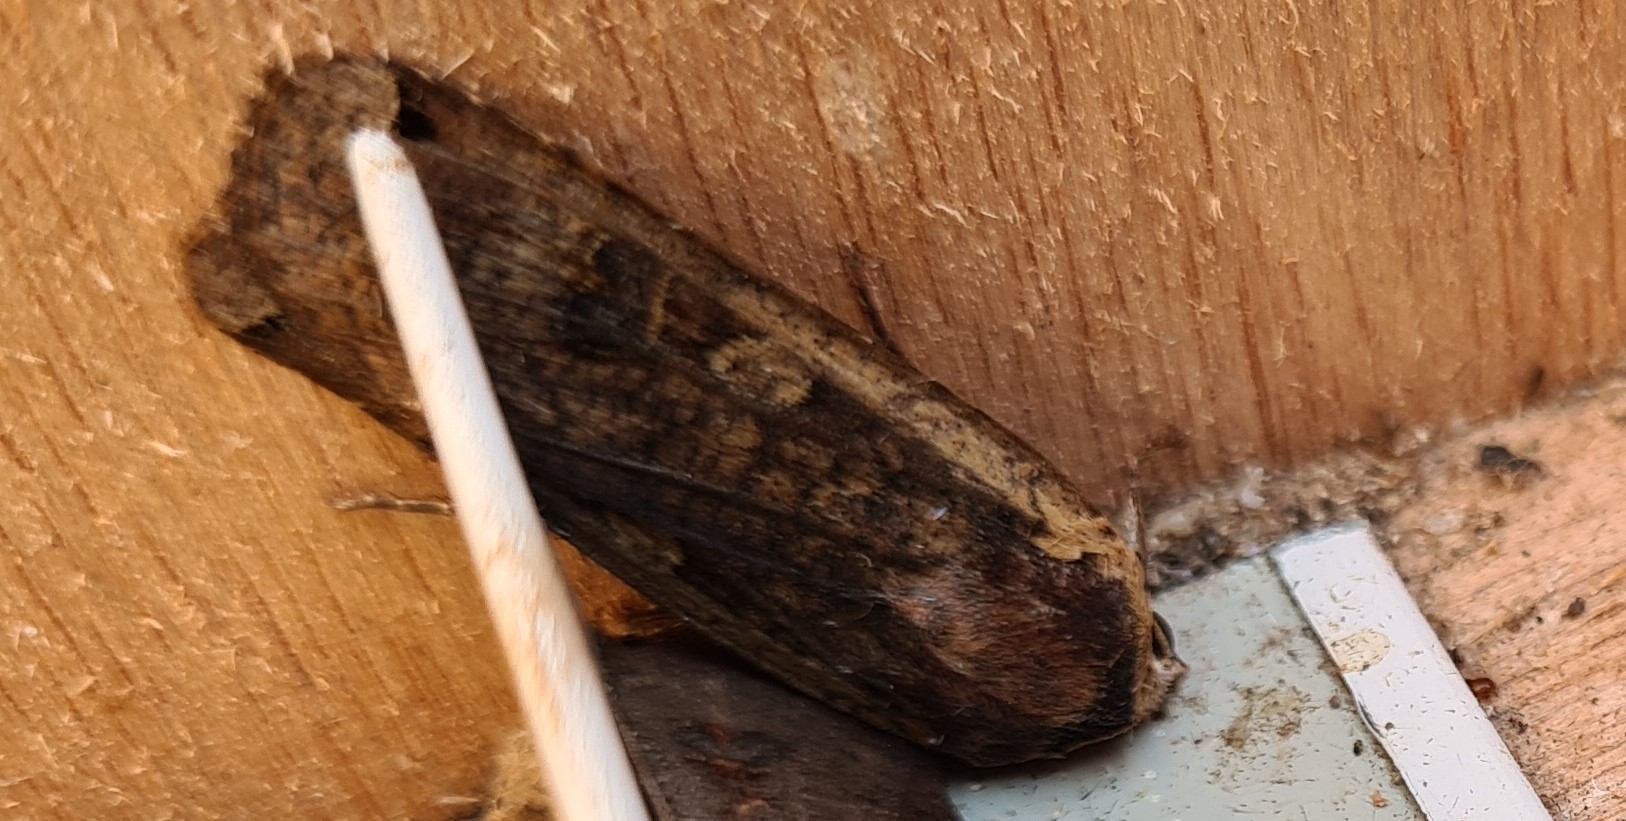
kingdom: Animalia
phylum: Arthropoda
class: Insecta
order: Lepidoptera
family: Noctuidae
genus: Noctua
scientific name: Noctua pronuba
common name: Large yellow underwing
